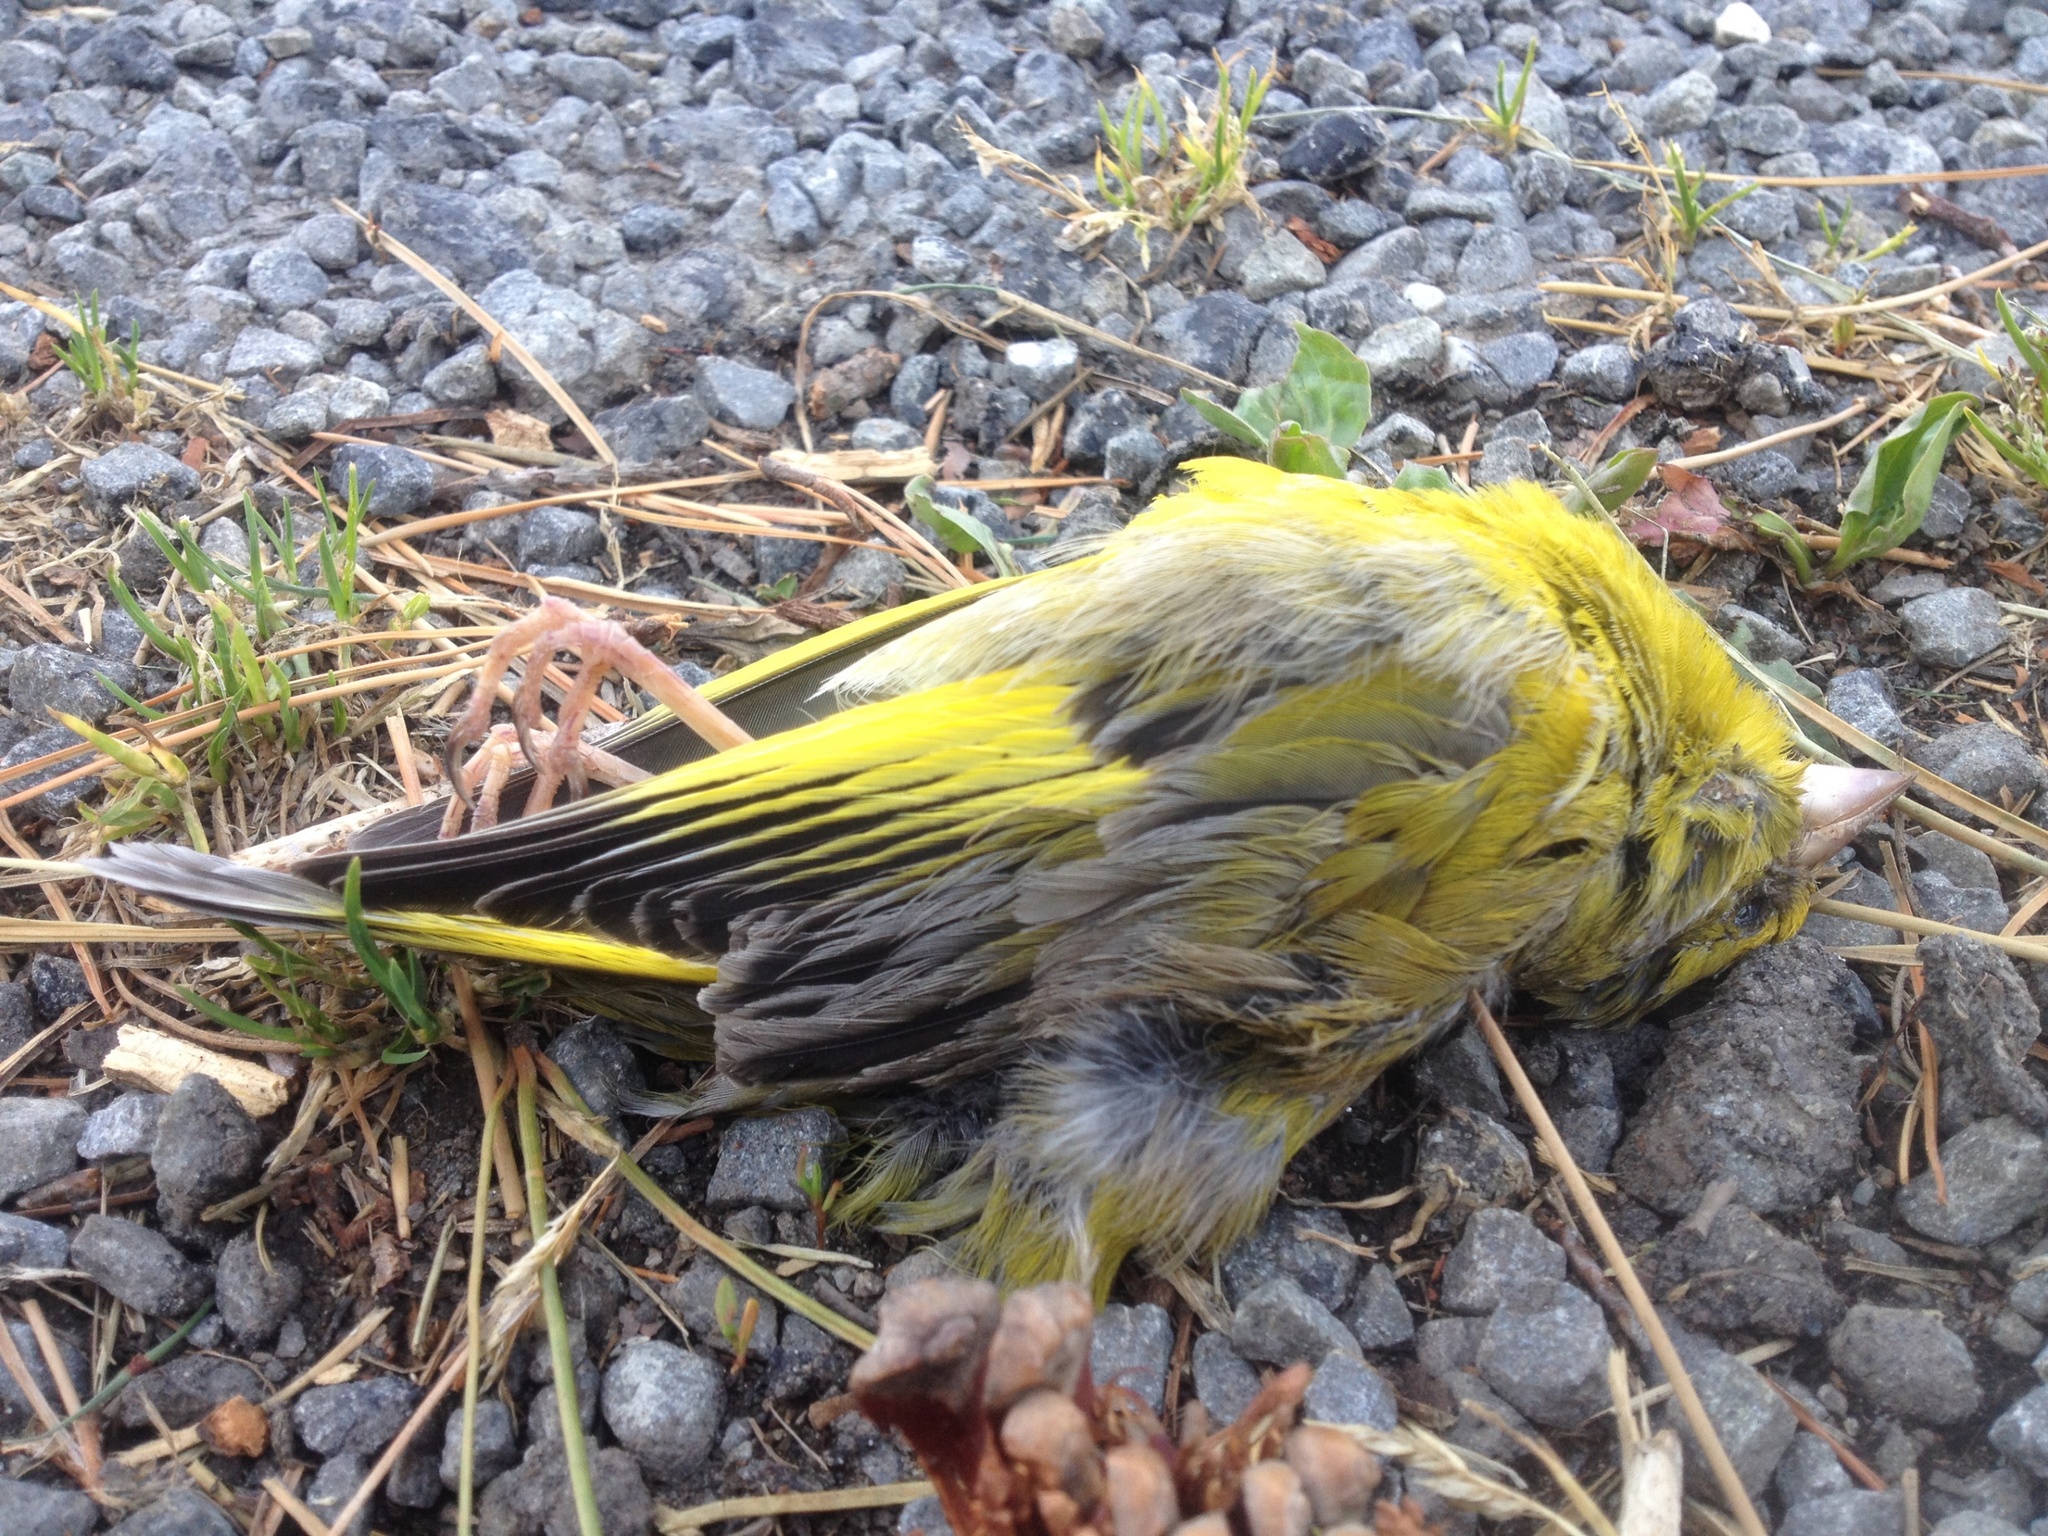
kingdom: Plantae
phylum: Tracheophyta
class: Liliopsida
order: Poales
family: Poaceae
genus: Chloris
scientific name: Chloris chloris
